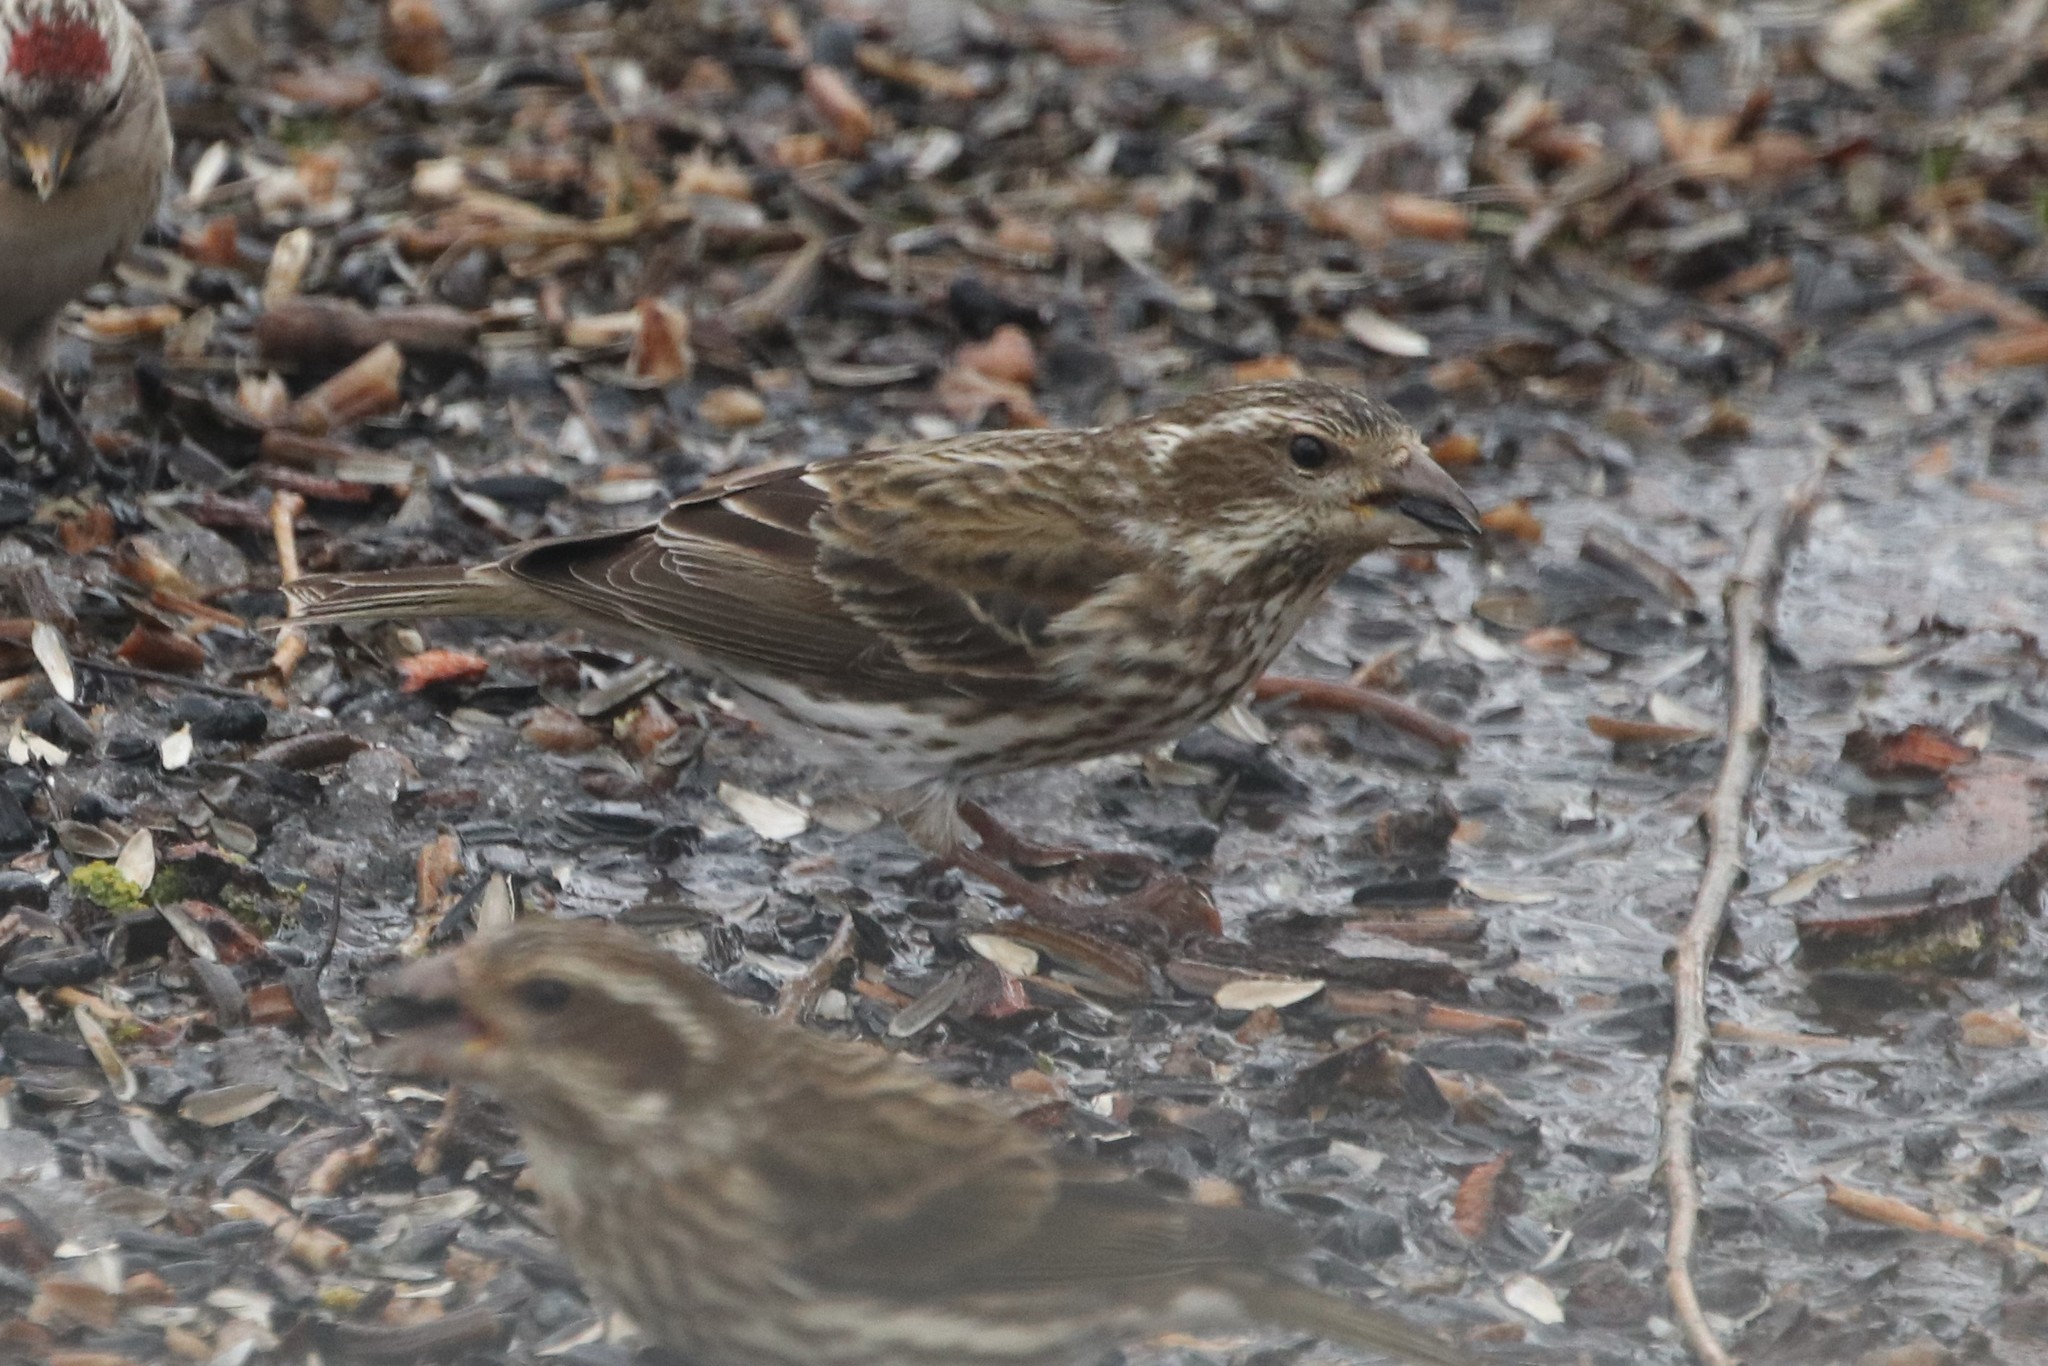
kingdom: Animalia
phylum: Chordata
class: Aves
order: Passeriformes
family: Fringillidae
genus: Haemorhous
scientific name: Haemorhous purpureus
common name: Purple finch
